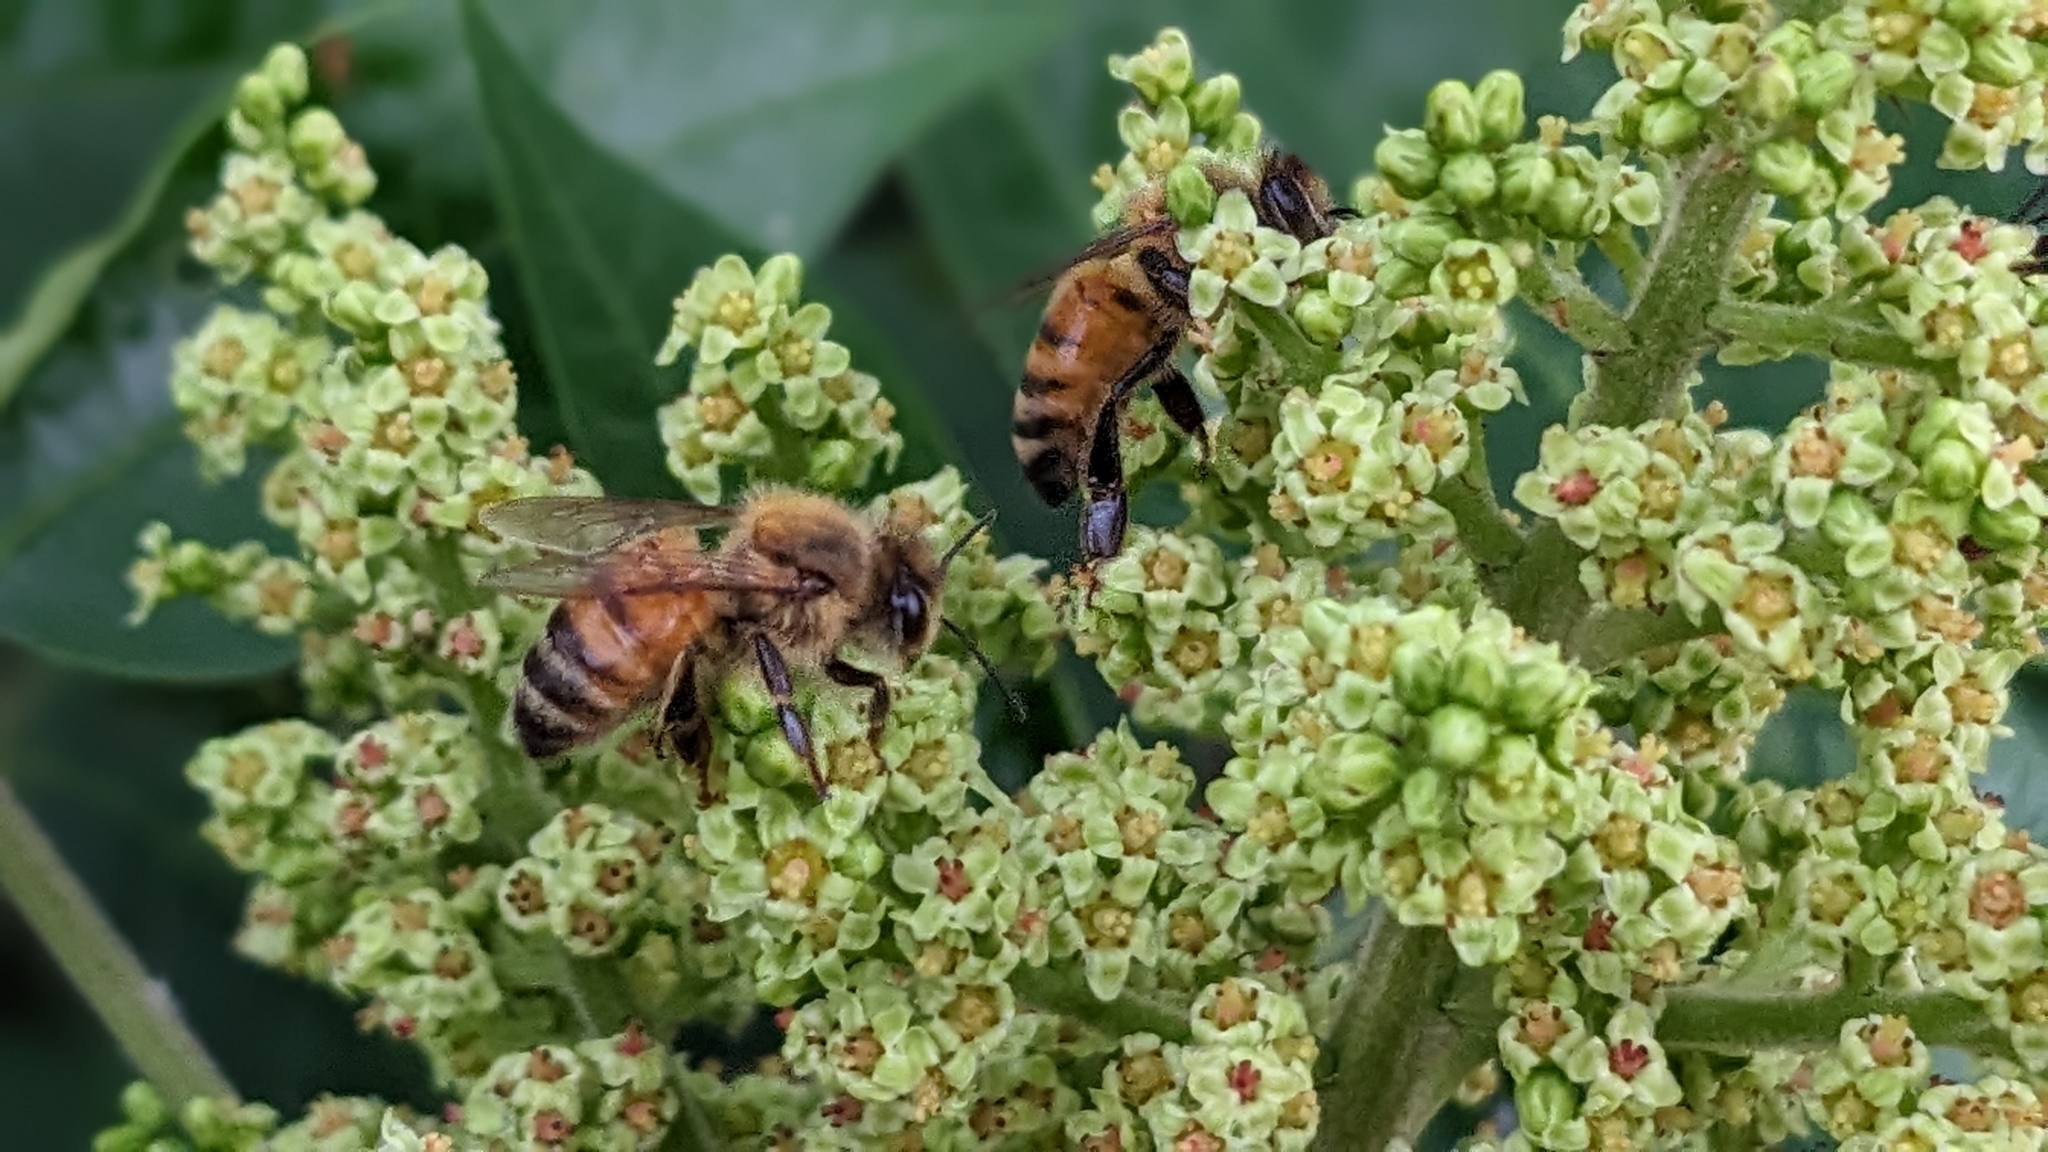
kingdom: Plantae
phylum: Tracheophyta
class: Magnoliopsida
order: Sapindales
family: Anacardiaceae
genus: Rhus
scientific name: Rhus copallina
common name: Shining sumac
